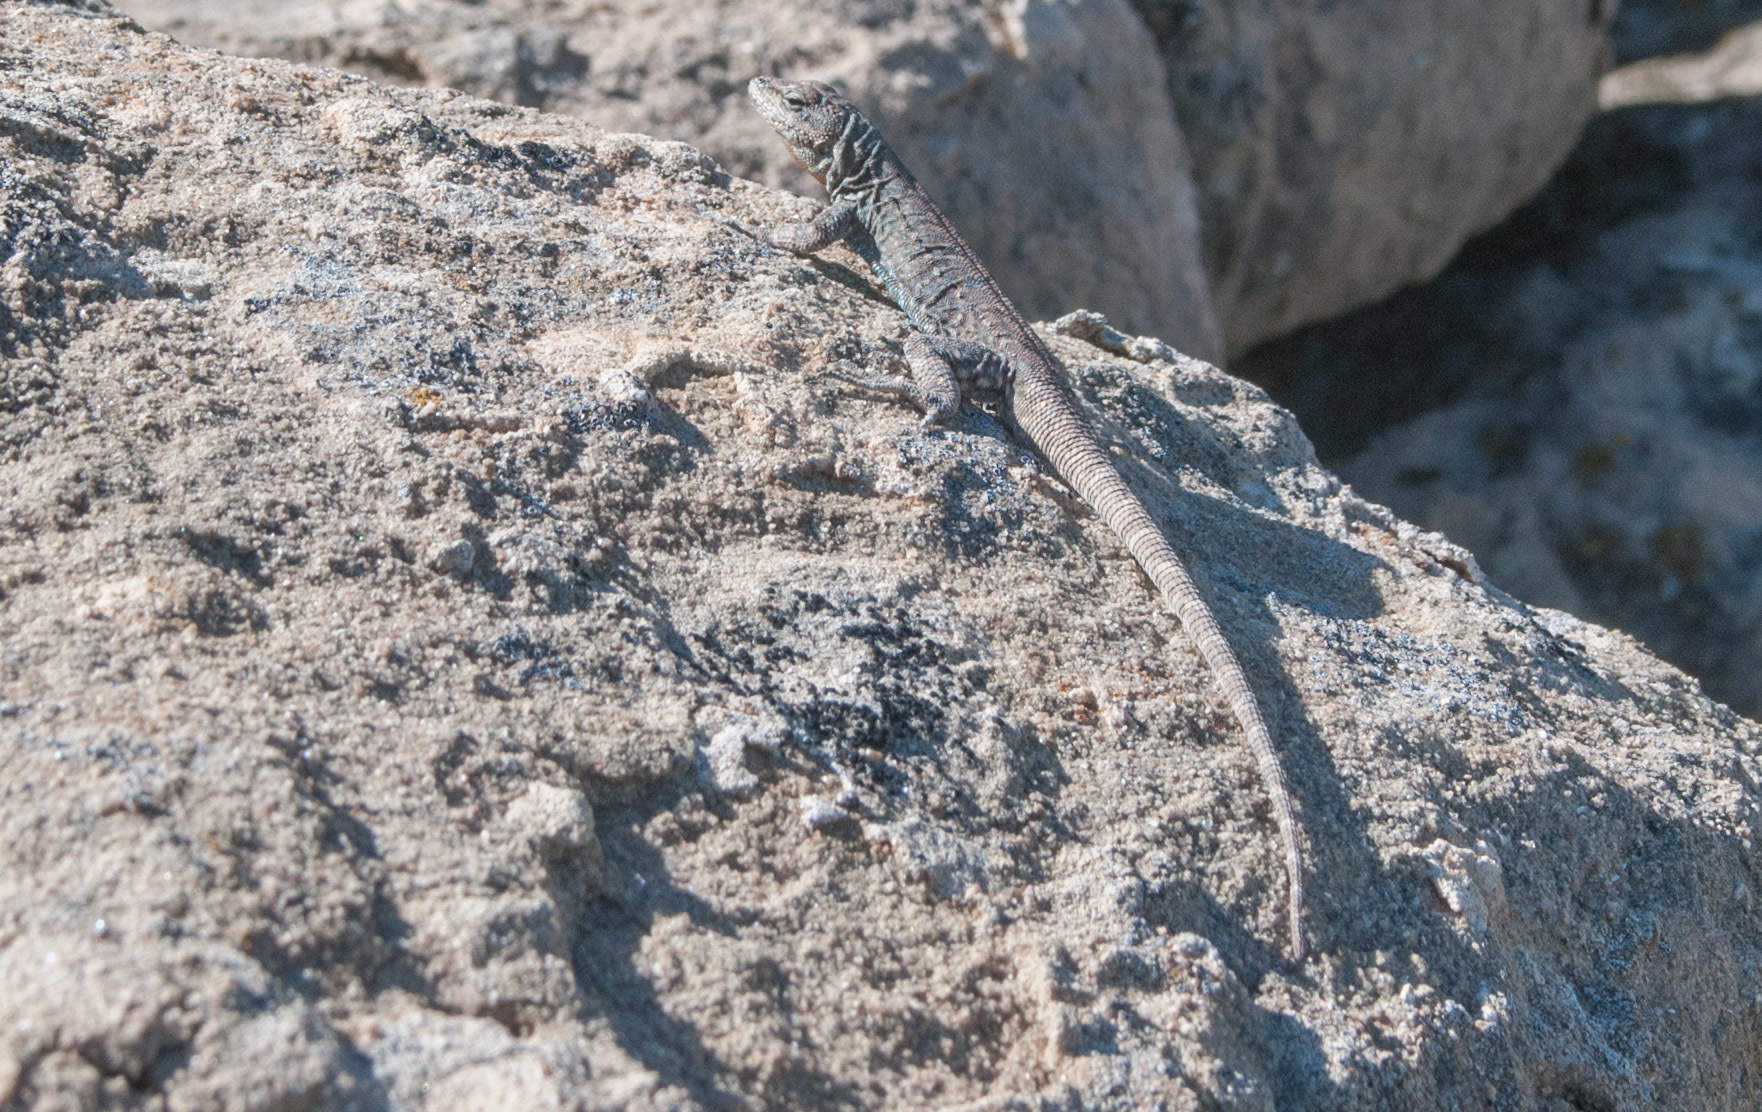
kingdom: Animalia
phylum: Chordata
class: Squamata
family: Phrynosomatidae
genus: Urosaurus
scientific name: Urosaurus ornatus
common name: Ornate tree lizard
